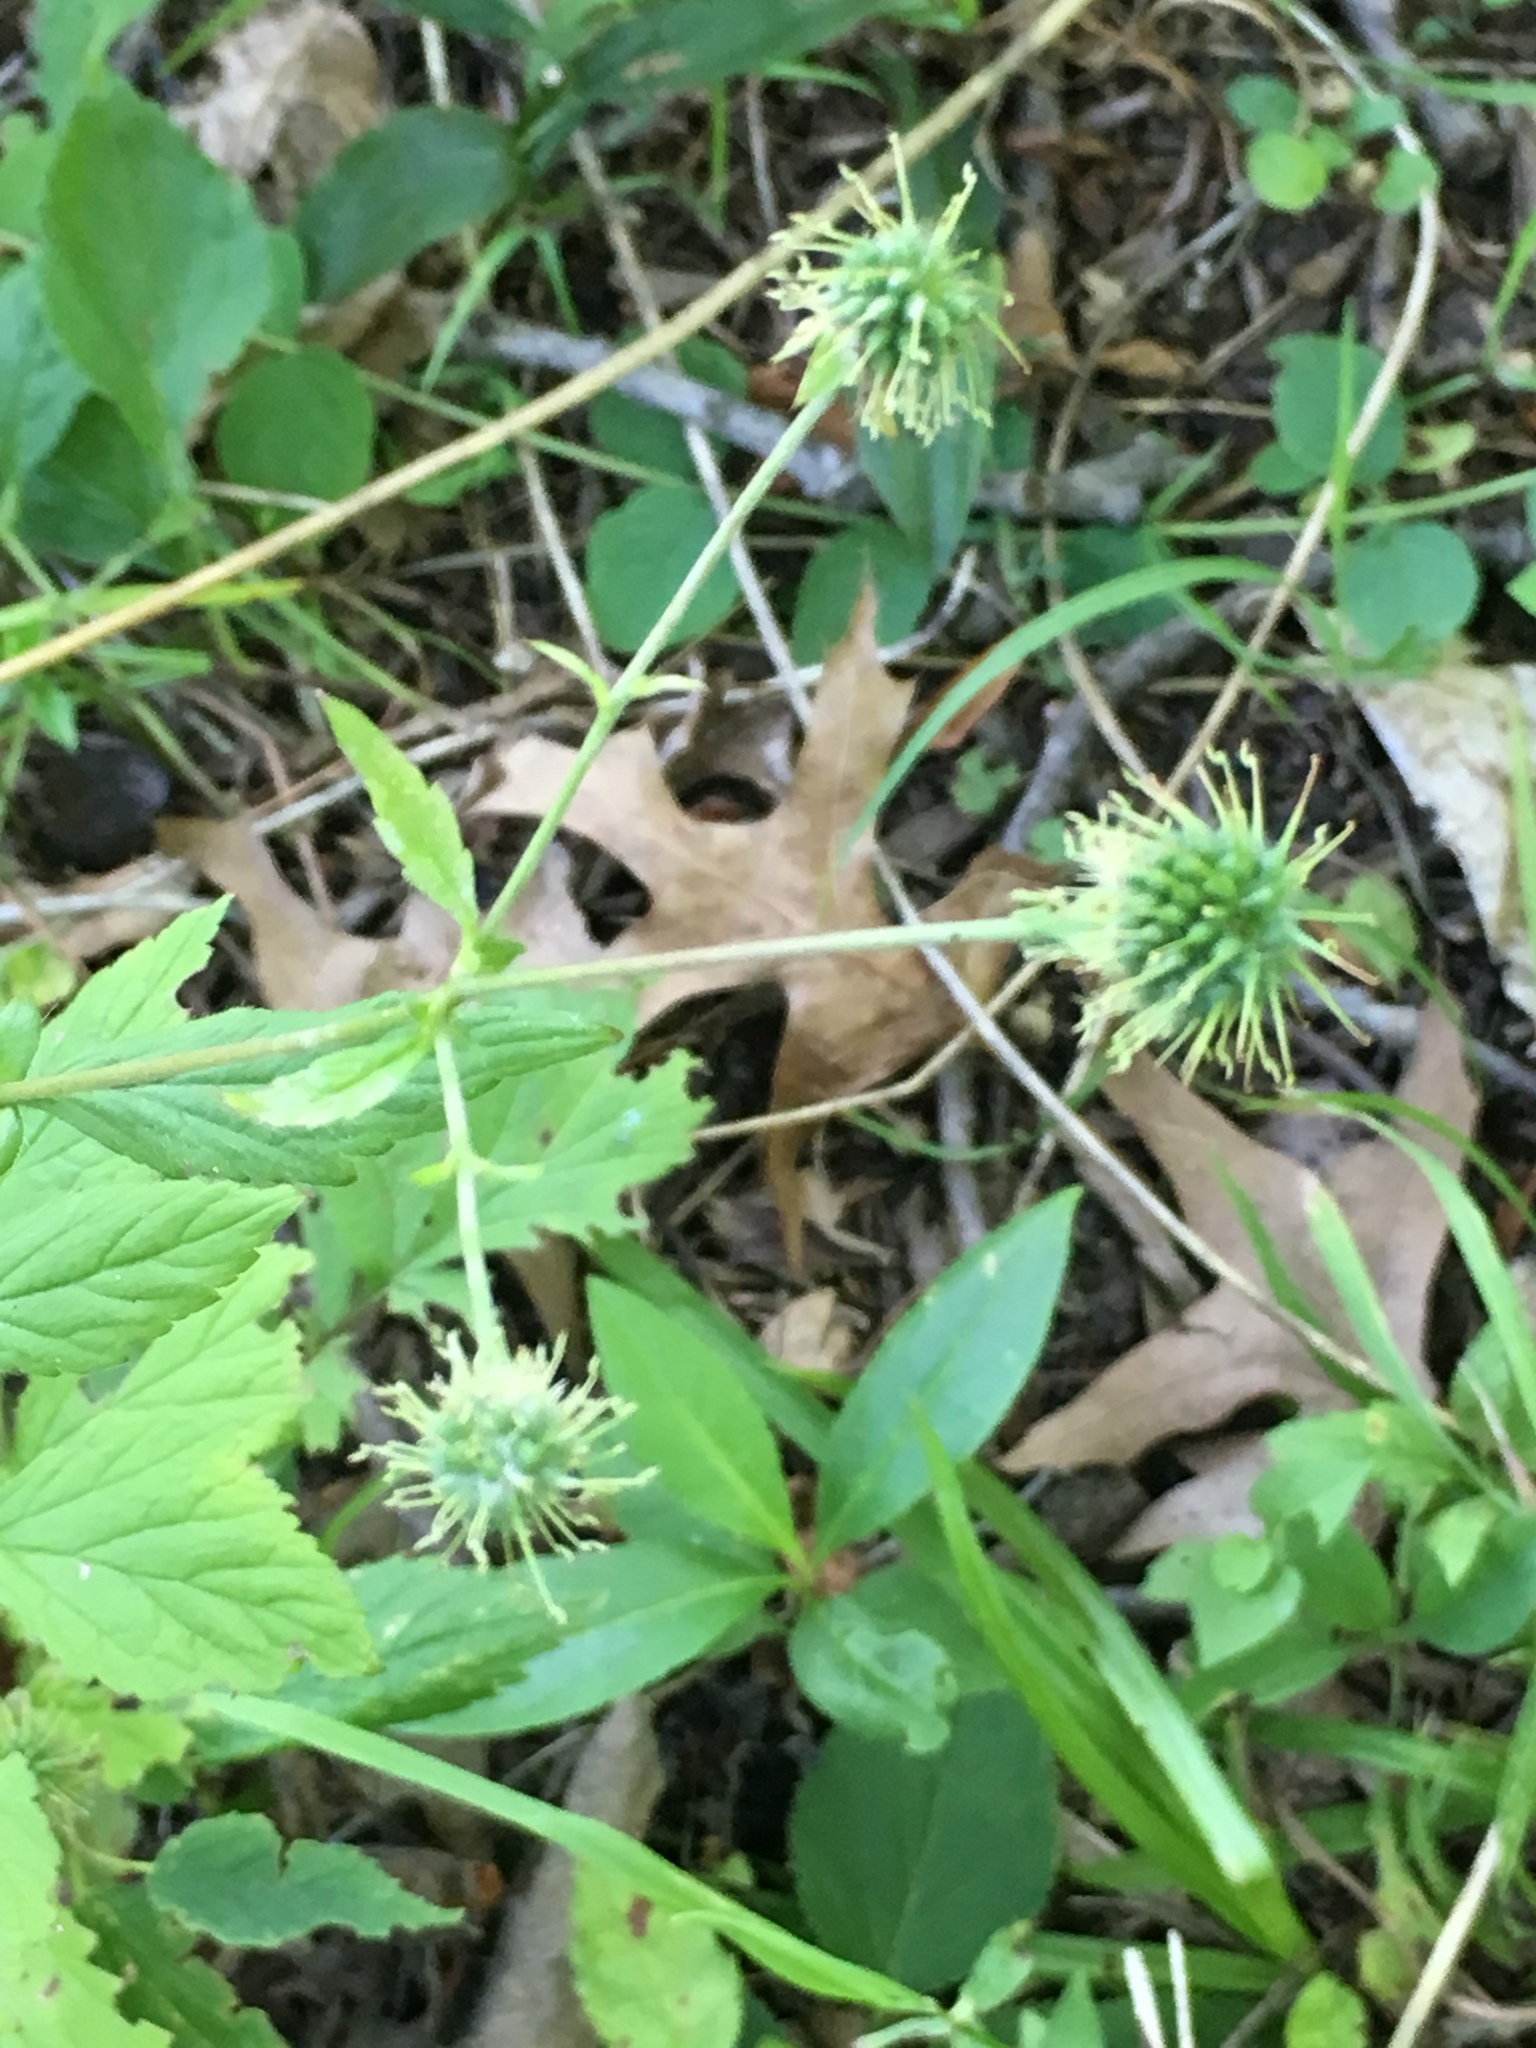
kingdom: Plantae
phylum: Tracheophyta
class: Magnoliopsida
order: Rosales
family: Rosaceae
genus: Geum
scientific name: Geum canadense
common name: White avens
